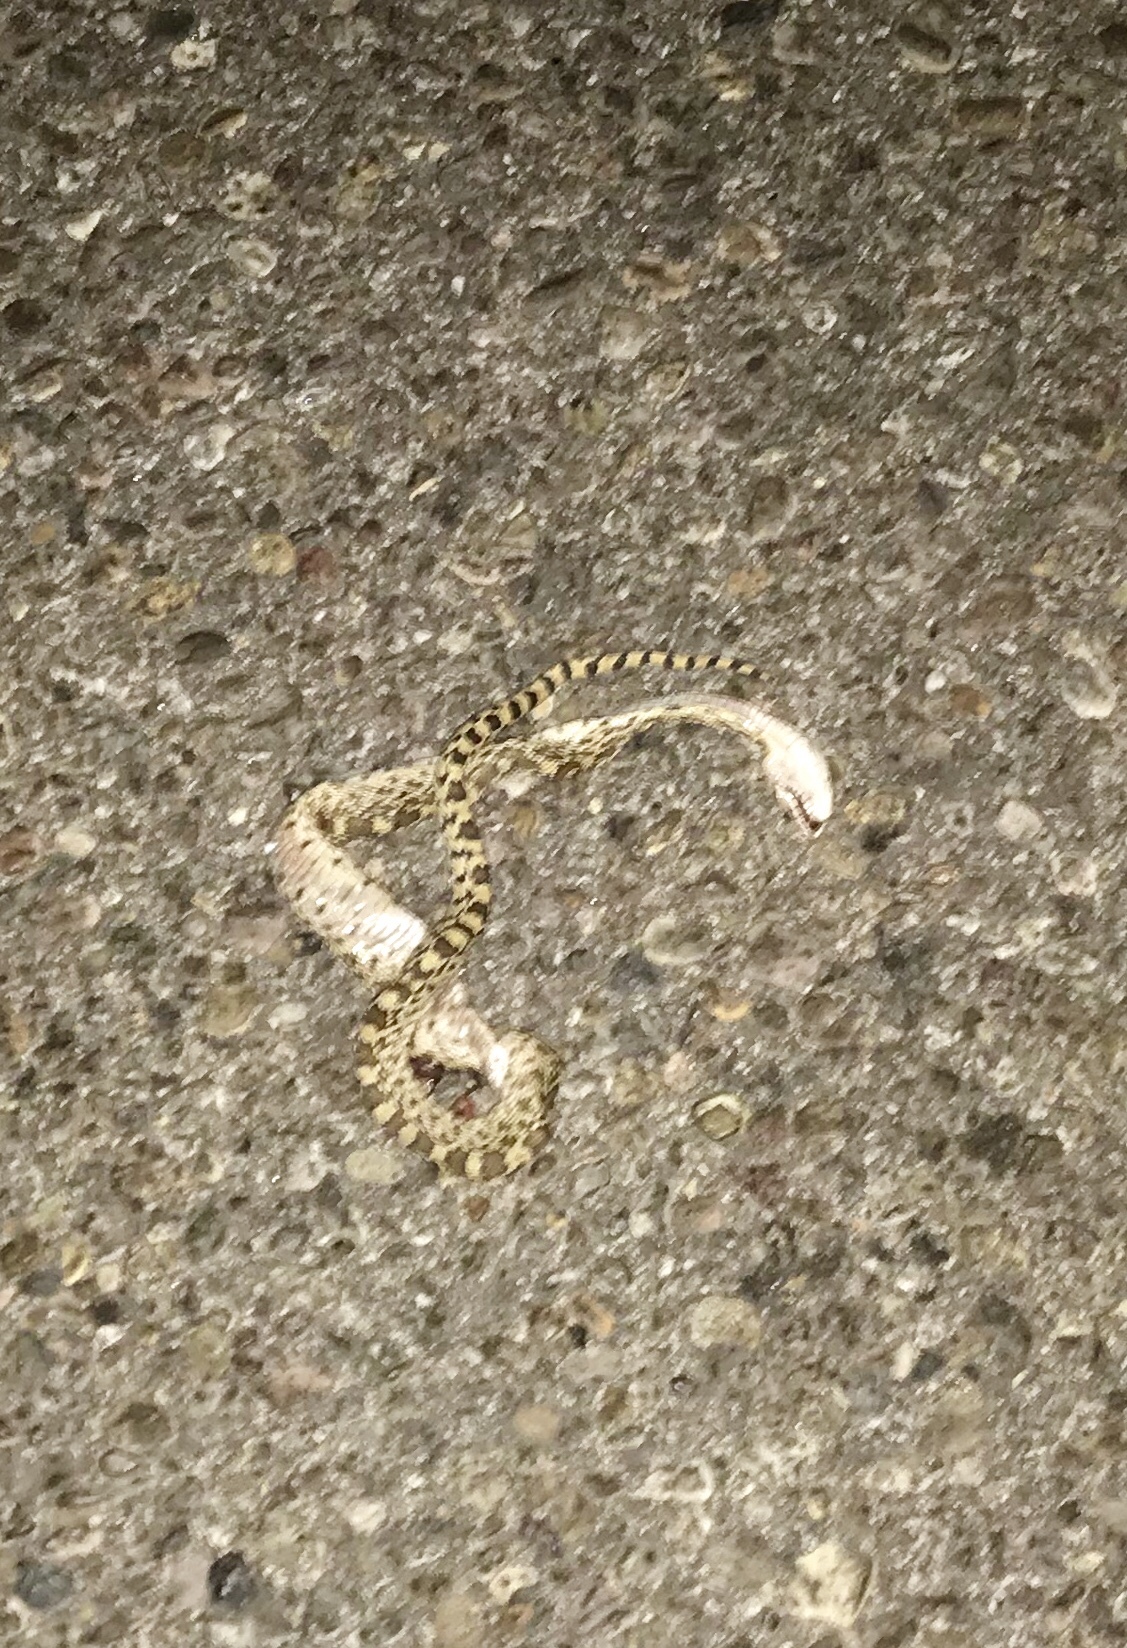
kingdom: Animalia
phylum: Chordata
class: Squamata
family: Colubridae
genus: Pituophis
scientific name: Pituophis catenifer
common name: Gopher snake
